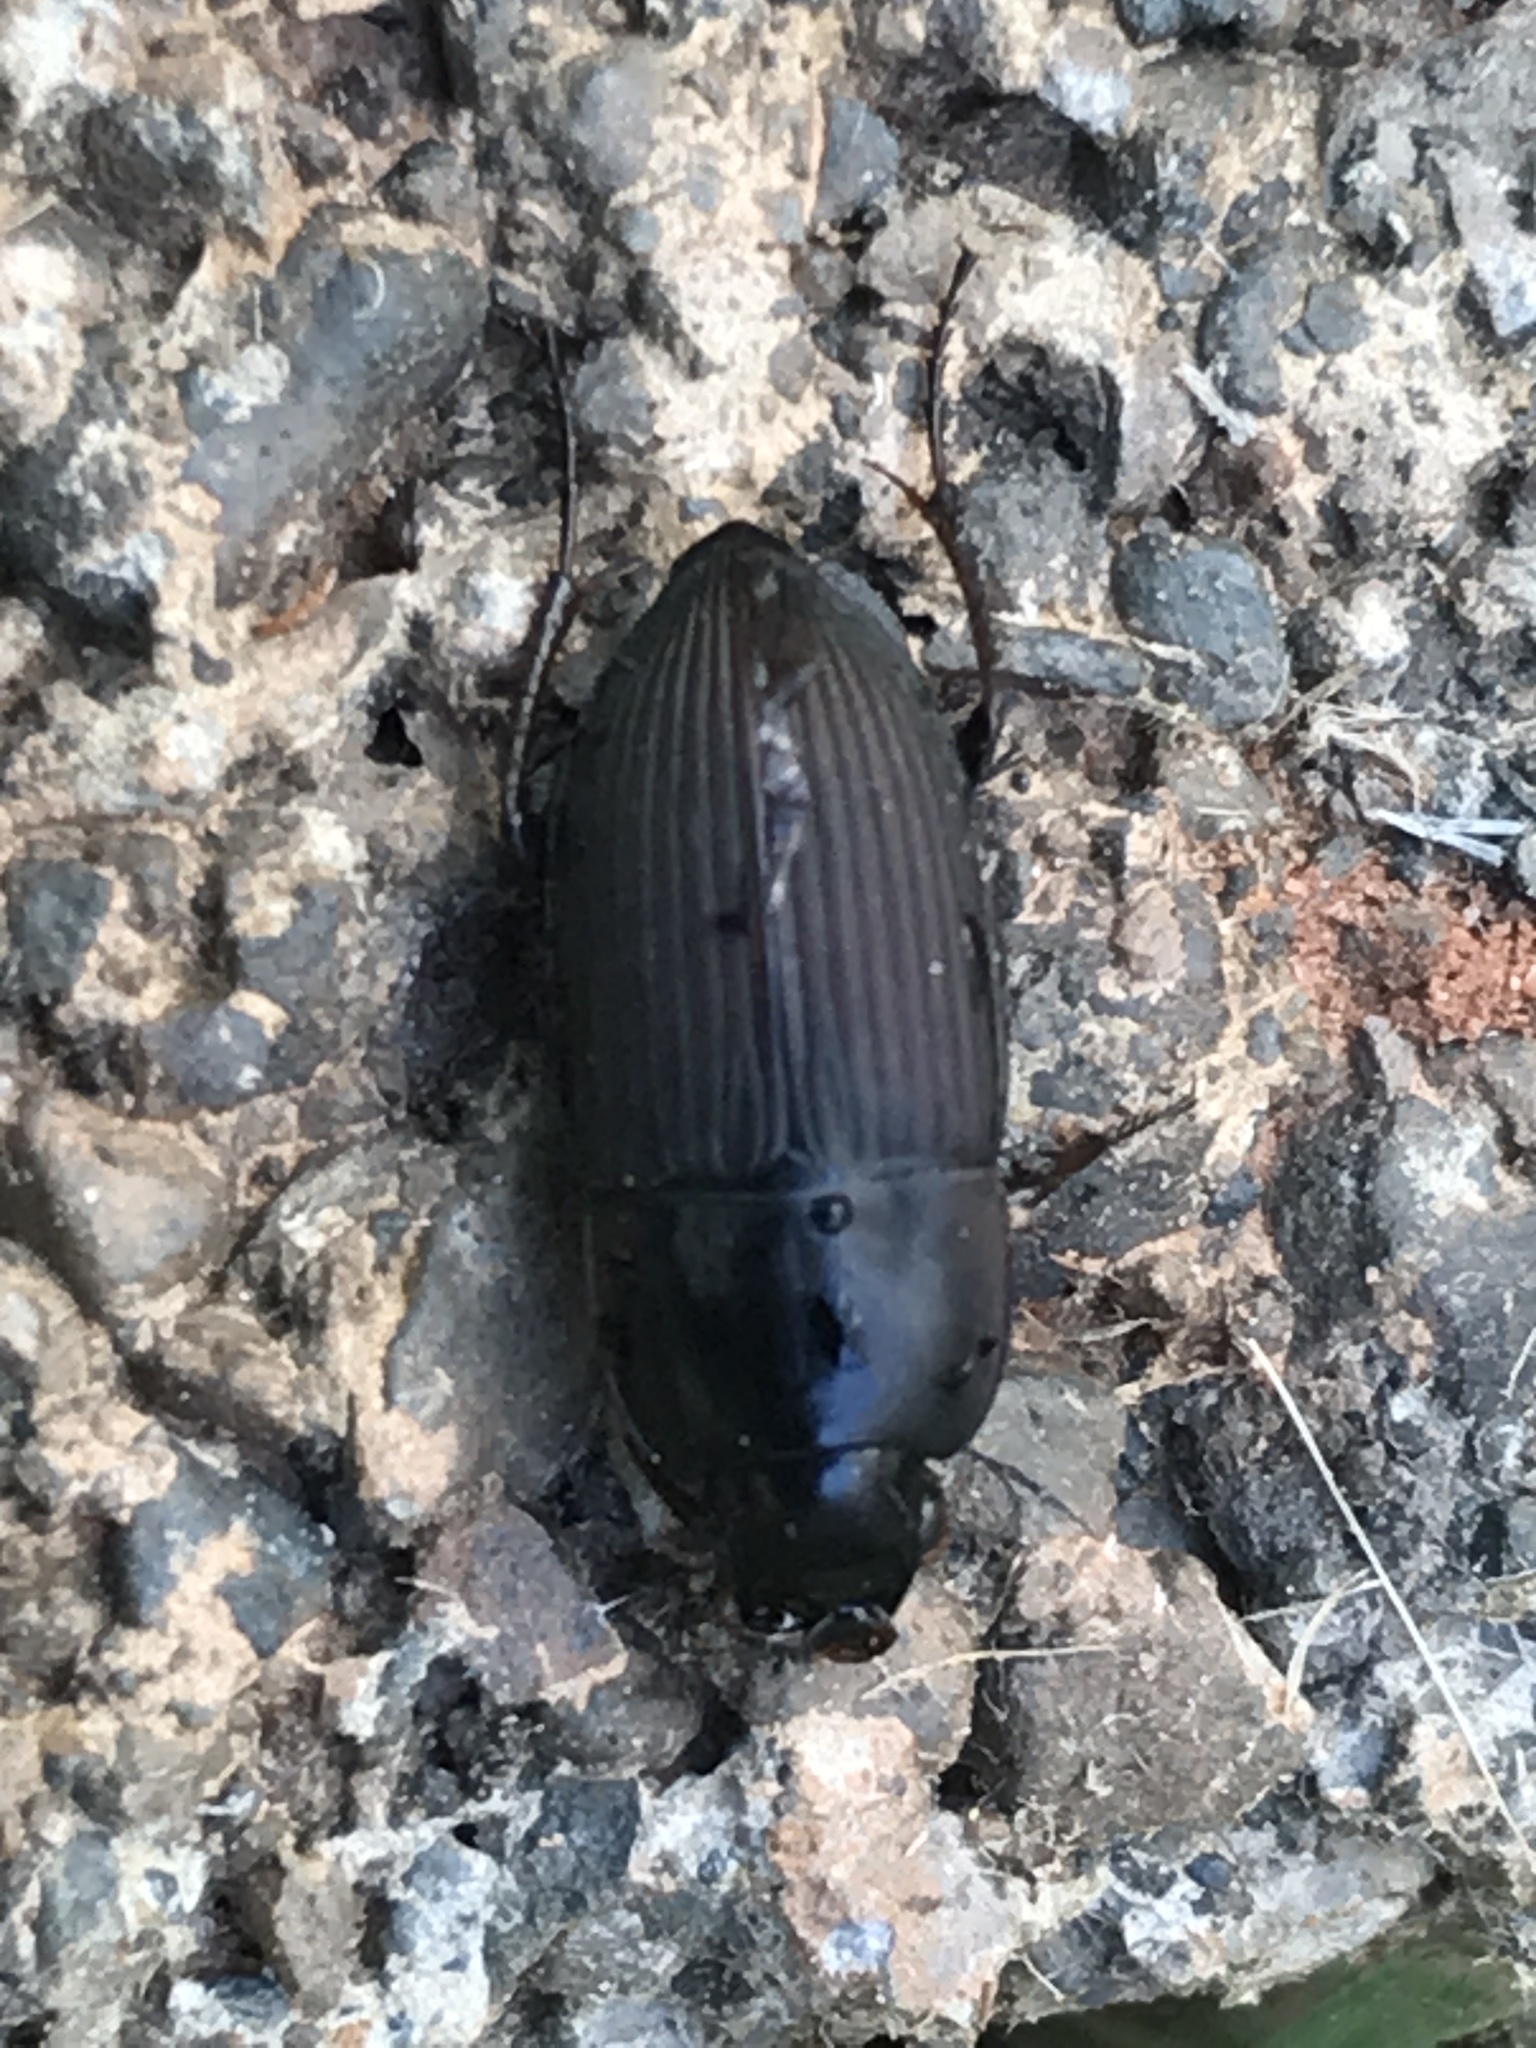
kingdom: Animalia
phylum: Arthropoda
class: Insecta
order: Coleoptera
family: Carabidae
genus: Anisodactylus
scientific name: Anisodactylus rusticus
